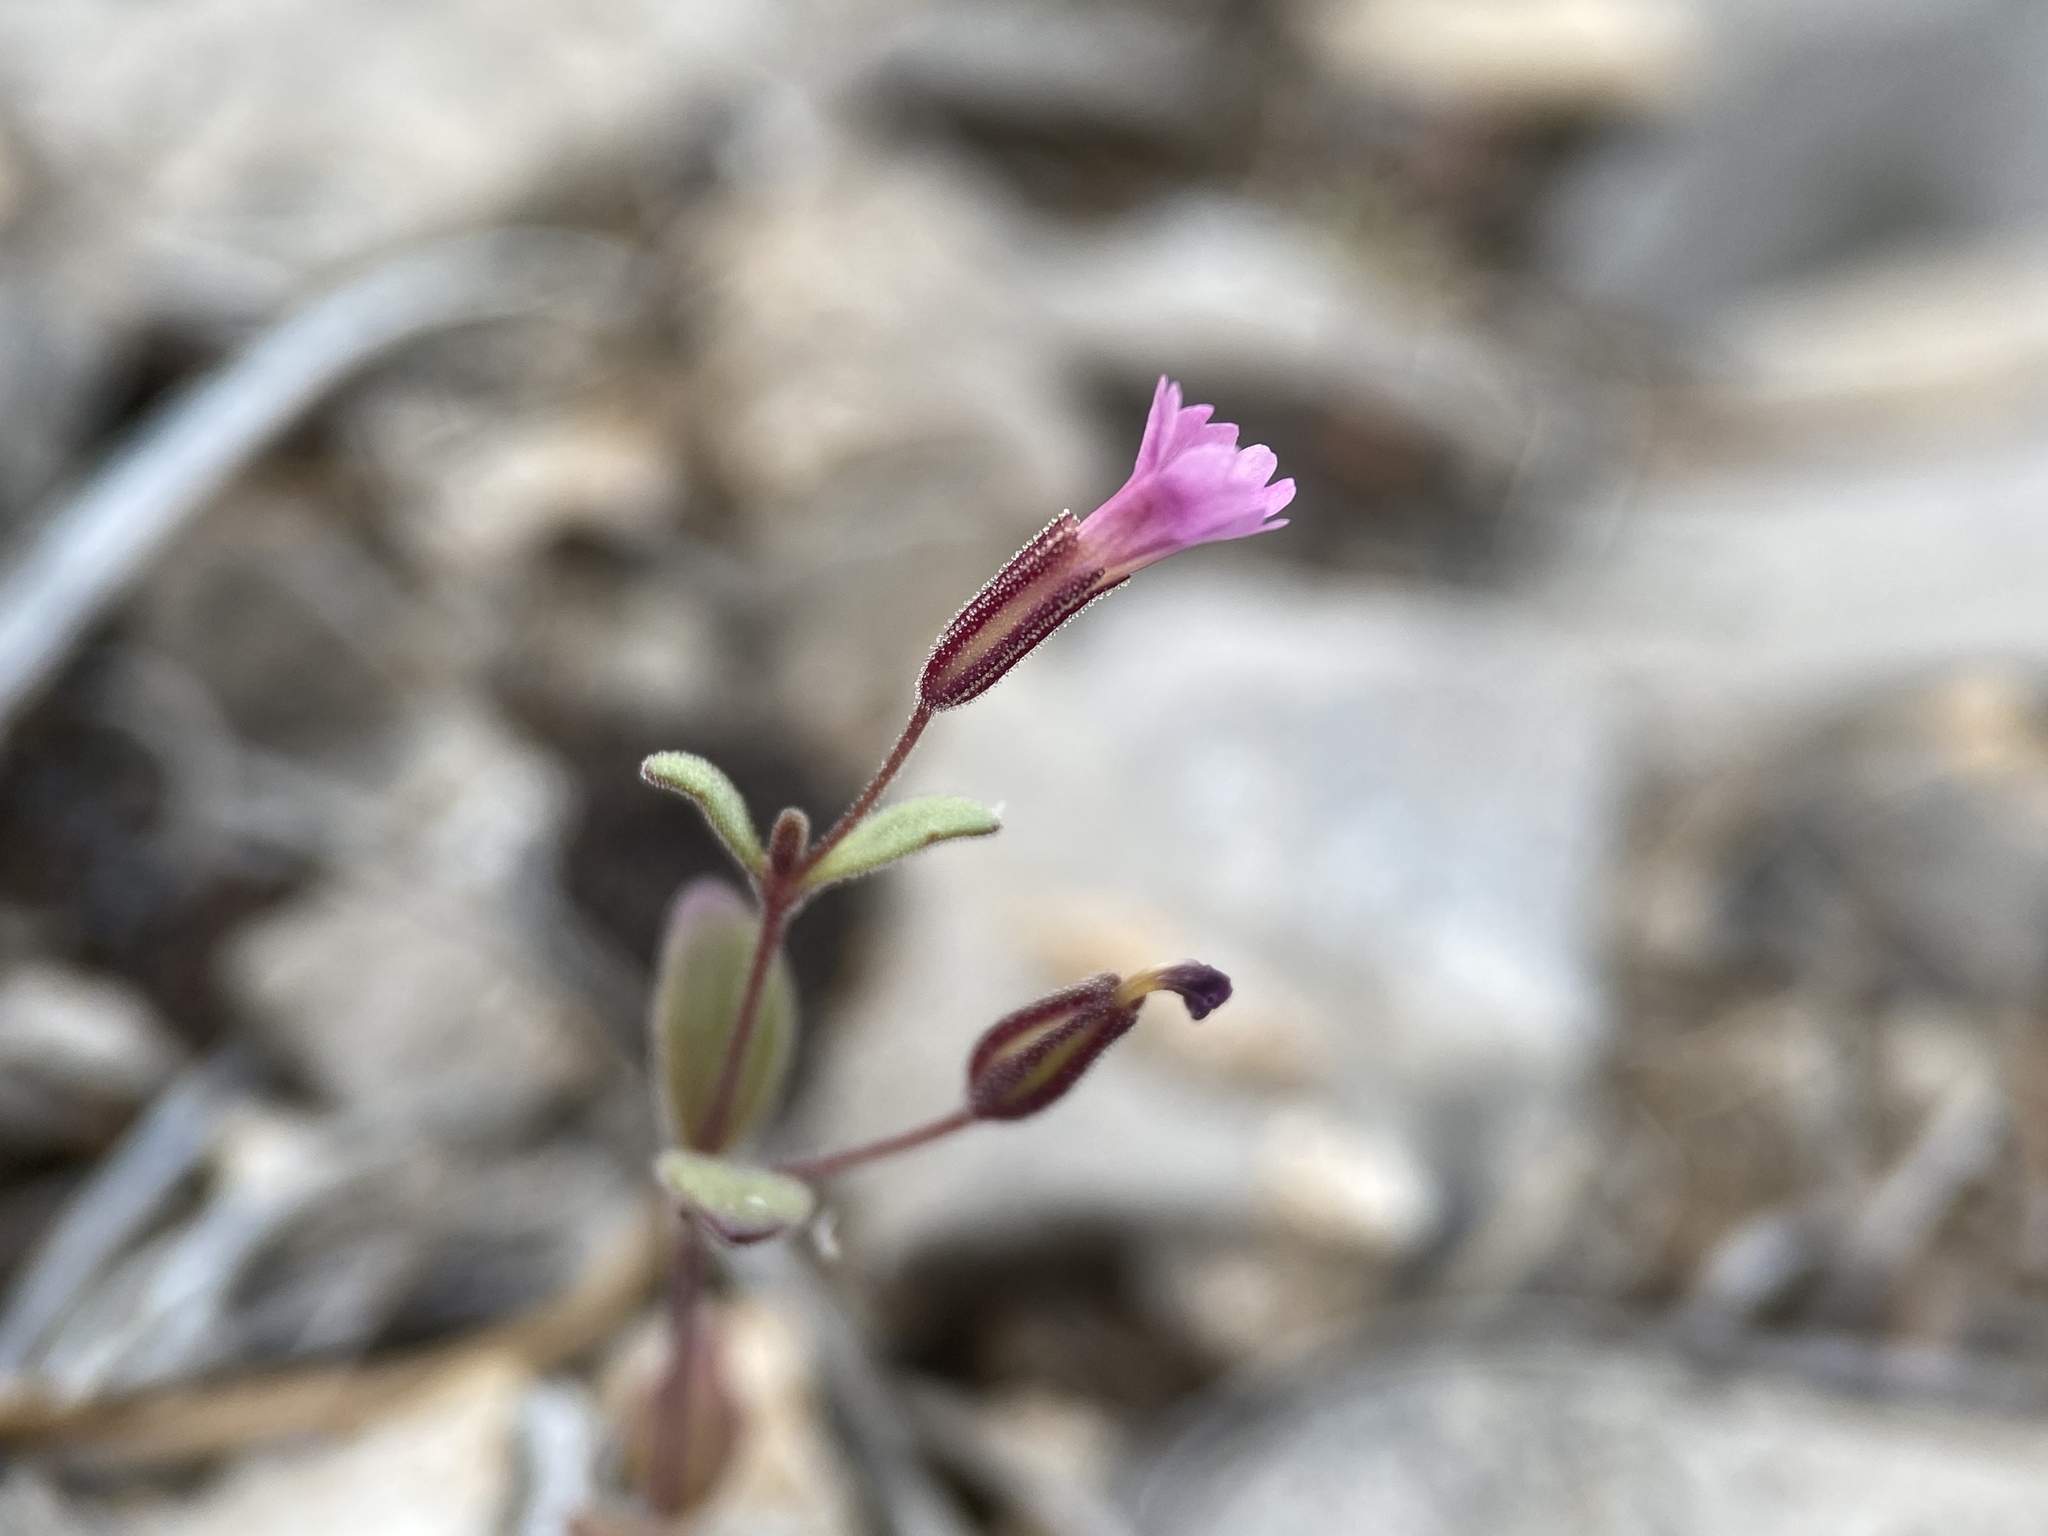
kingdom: Plantae
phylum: Tracheophyta
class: Magnoliopsida
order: Lamiales
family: Phrymaceae
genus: Erythranthe
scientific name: Erythranthe rubella
